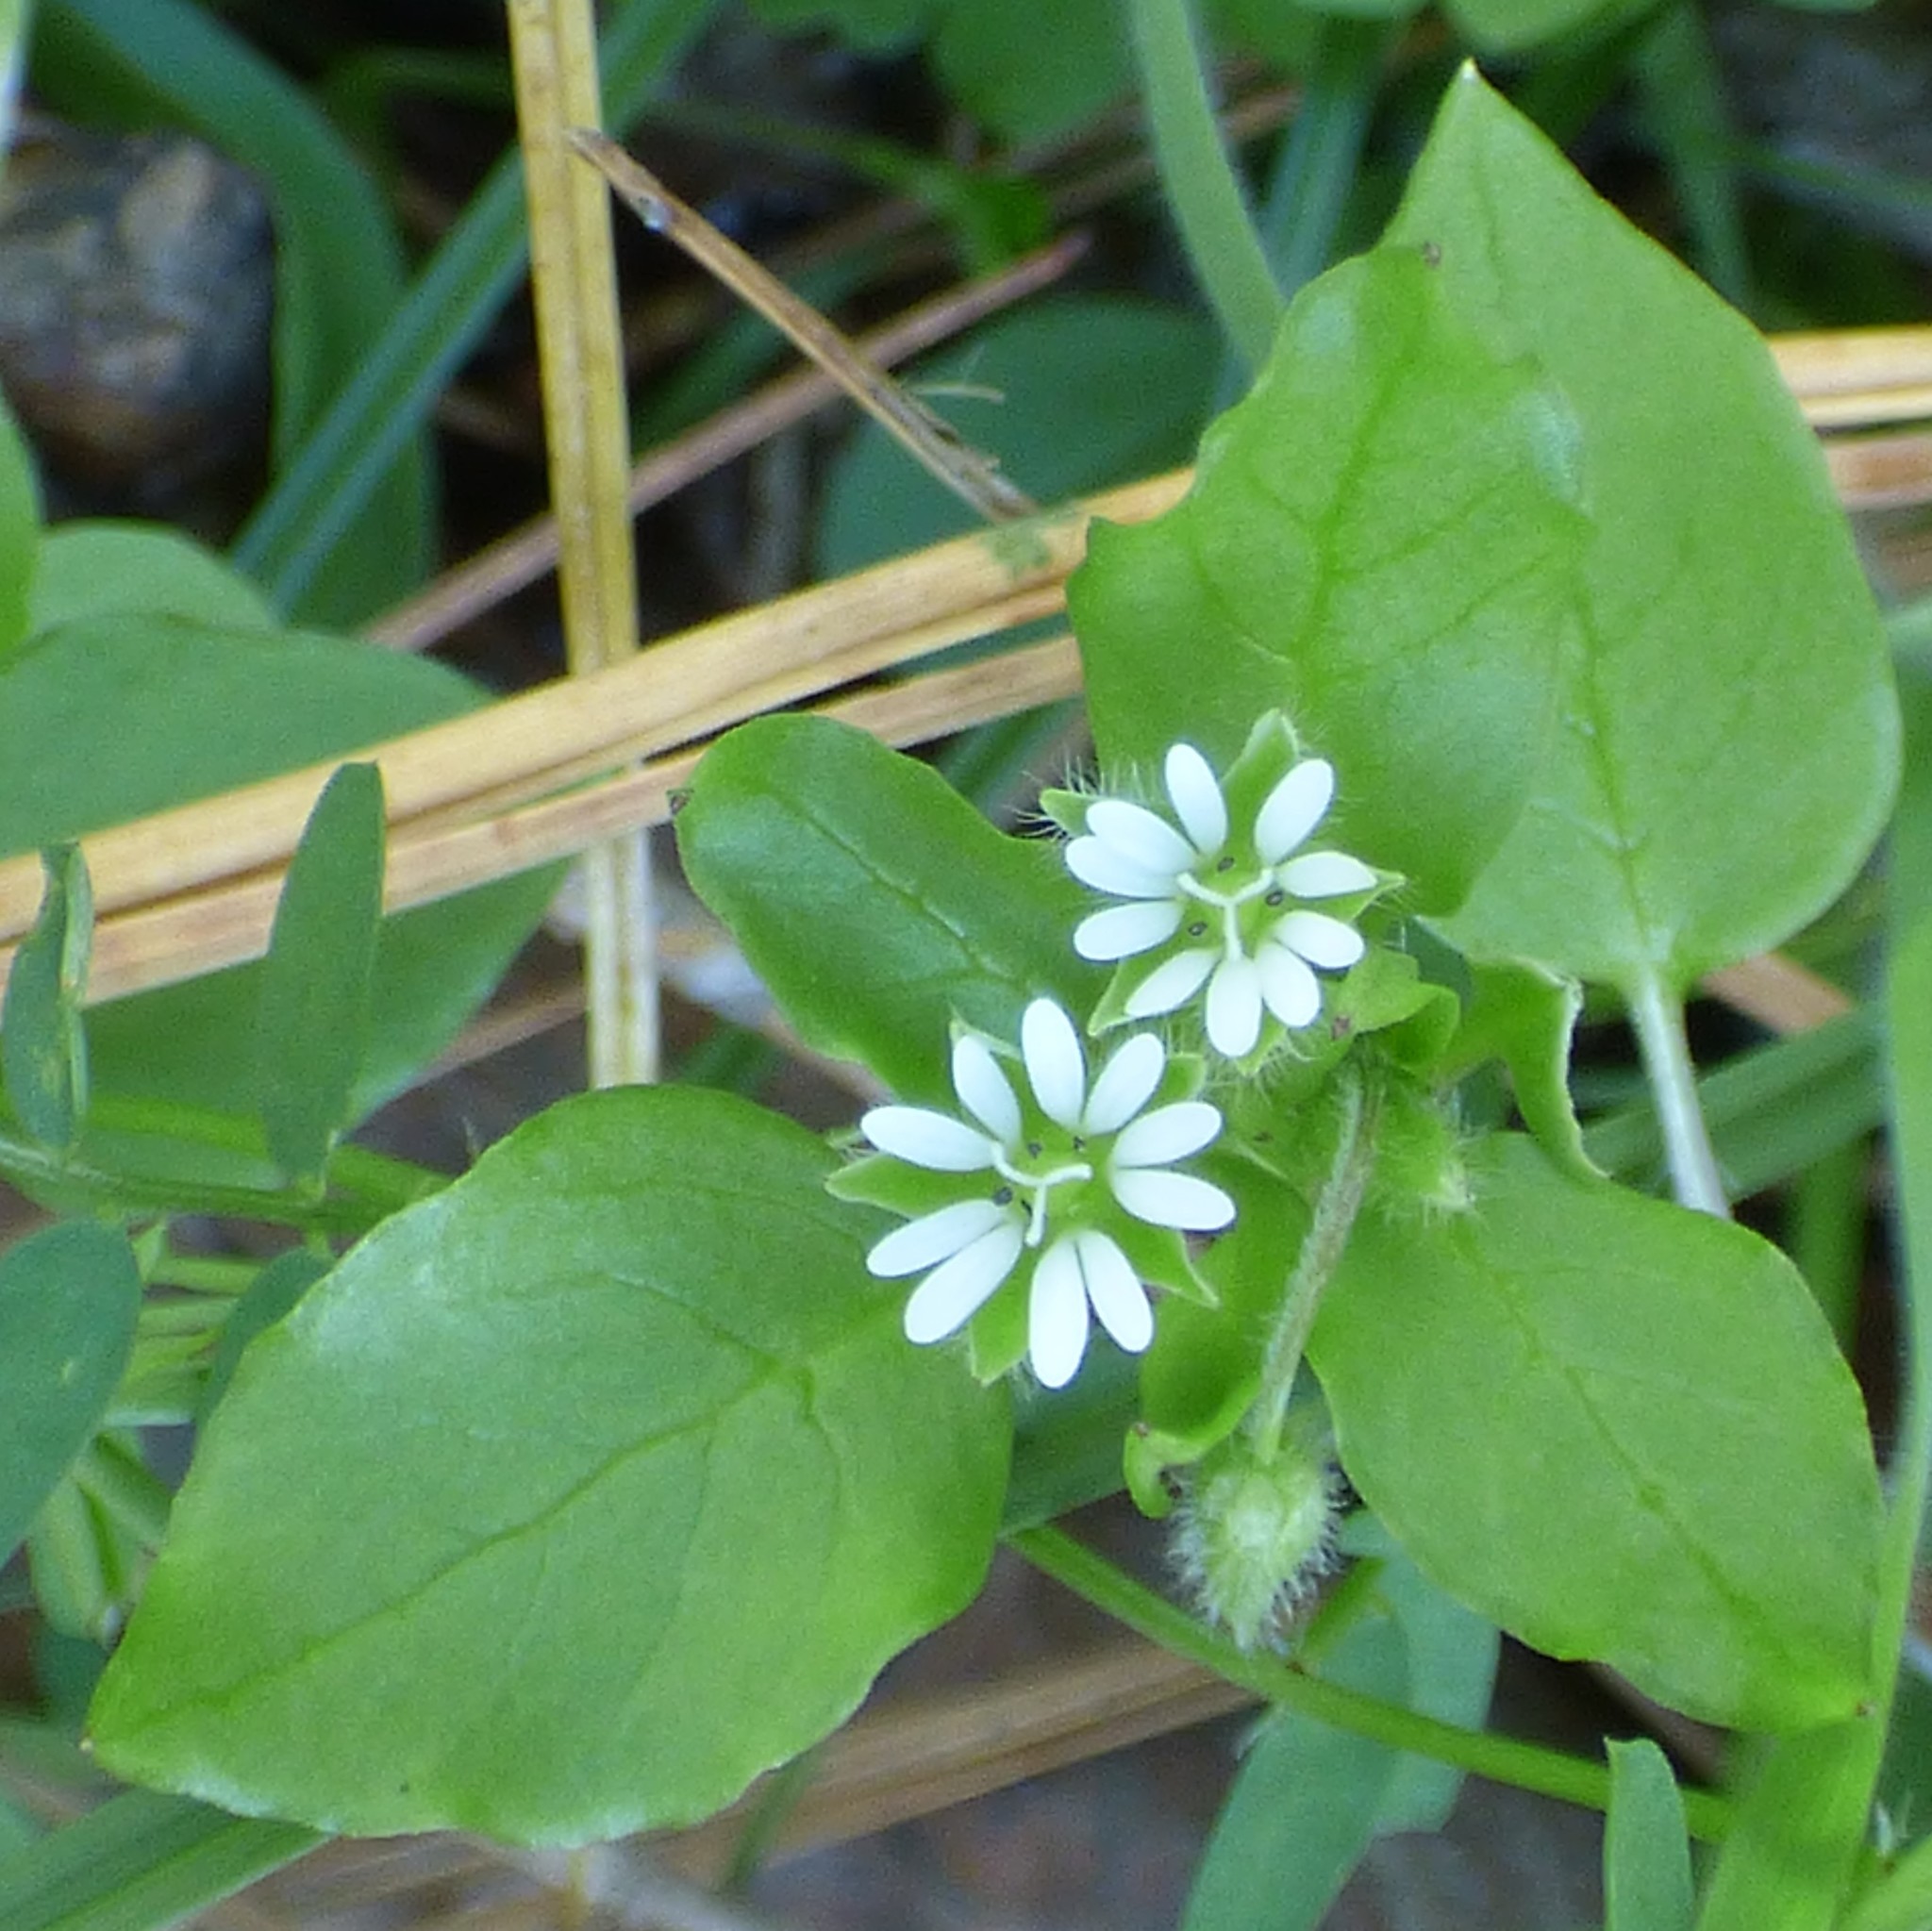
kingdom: Plantae
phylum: Tracheophyta
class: Magnoliopsida
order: Caryophyllales
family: Caryophyllaceae
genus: Stellaria
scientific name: Stellaria media
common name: Common chickweed
